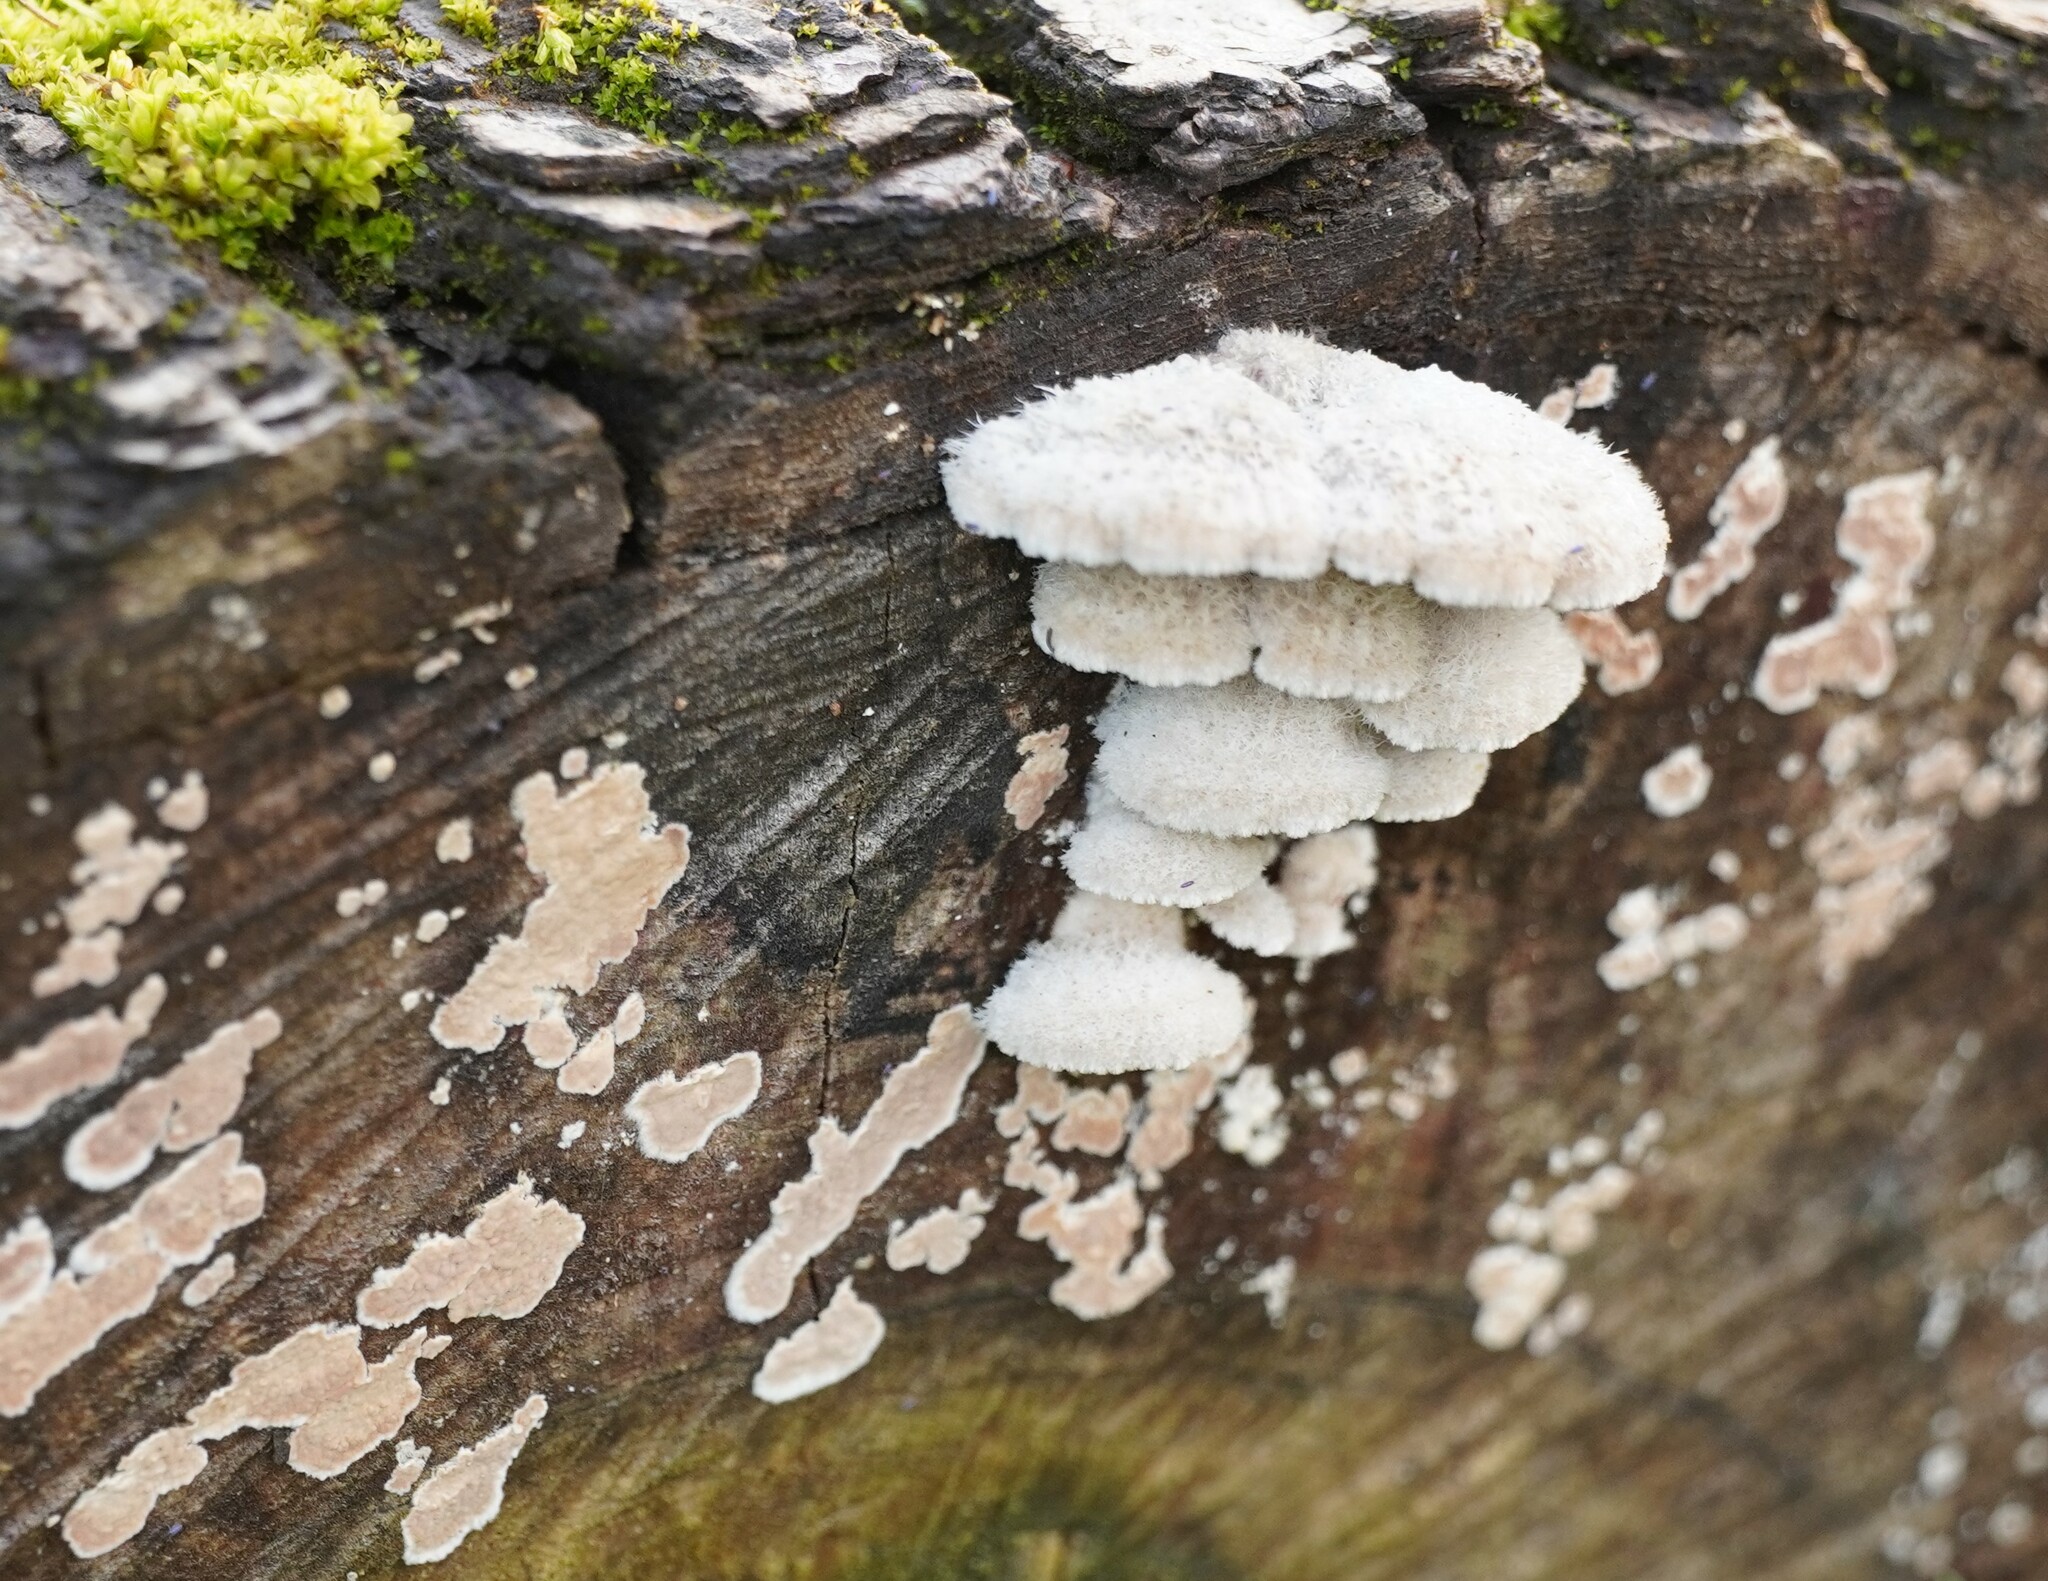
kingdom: Fungi
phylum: Basidiomycota
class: Agaricomycetes
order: Agaricales
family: Schizophyllaceae
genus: Schizophyllum
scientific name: Schizophyllum commune
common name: Common porecrust
